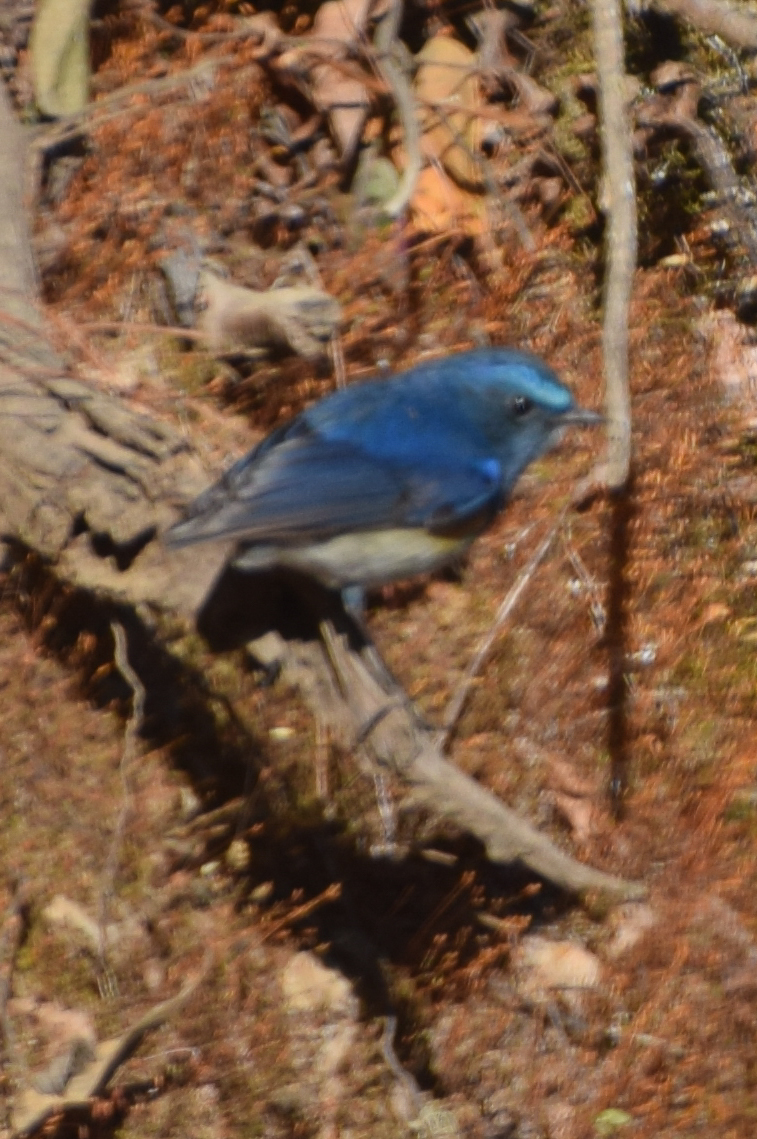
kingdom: Animalia
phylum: Chordata
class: Aves
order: Passeriformes
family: Muscicapidae
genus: Tarsiger
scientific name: Tarsiger rufilatus
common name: Himalayan bluetail
